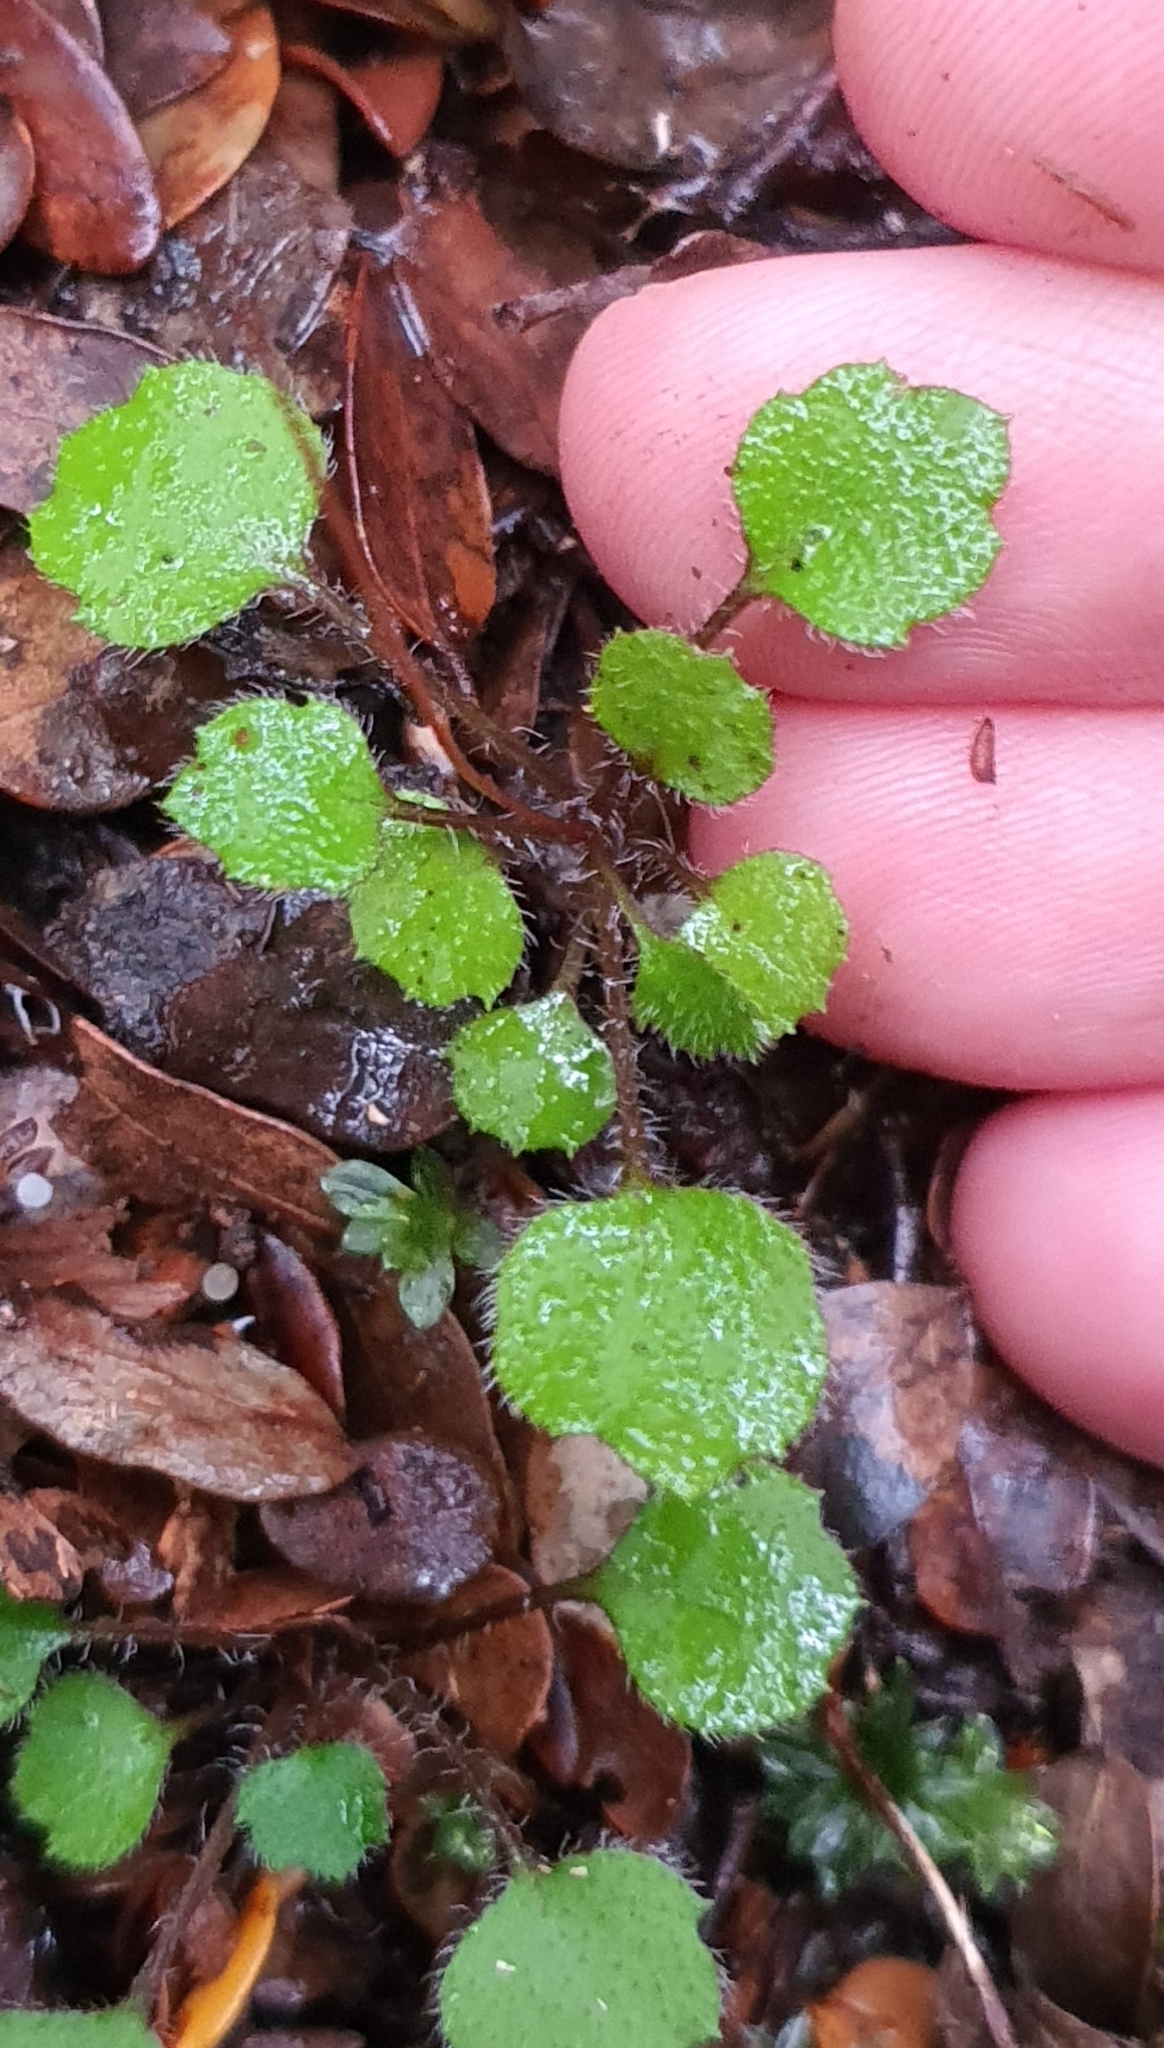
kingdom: Plantae
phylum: Tracheophyta
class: Magnoliopsida
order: Asterales
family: Asteraceae
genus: Lagenophora
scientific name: Lagenophora strangulata
